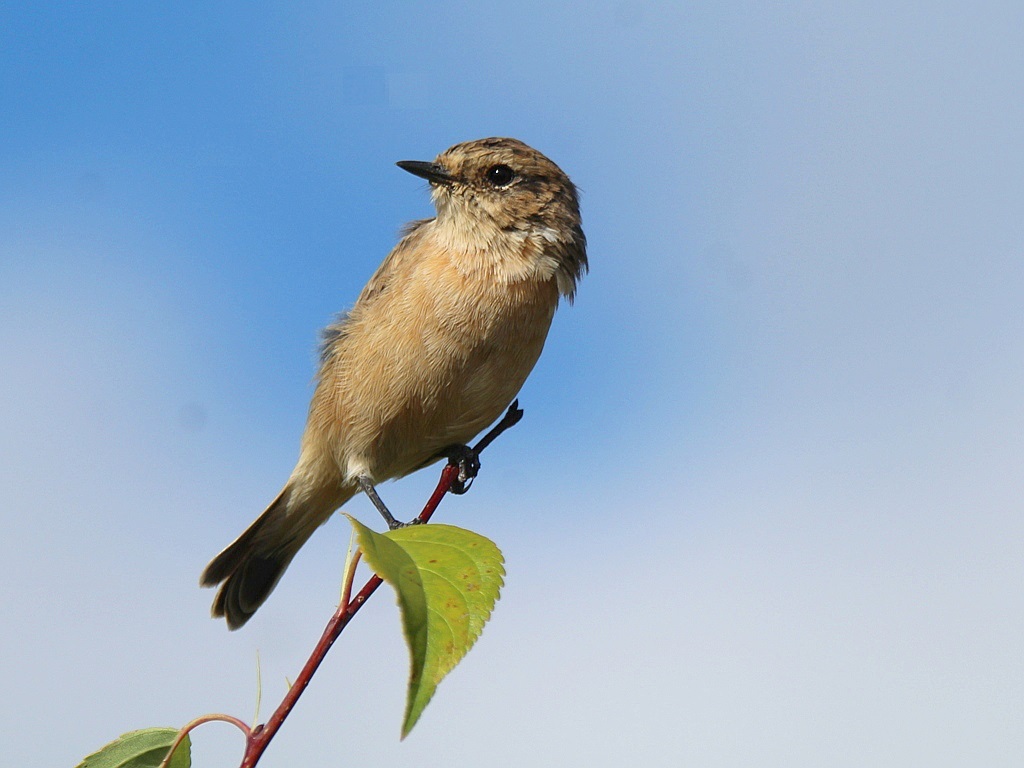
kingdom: Animalia
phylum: Chordata
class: Aves
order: Passeriformes
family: Muscicapidae
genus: Saxicola
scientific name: Saxicola maurus
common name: Siberian stonechat
